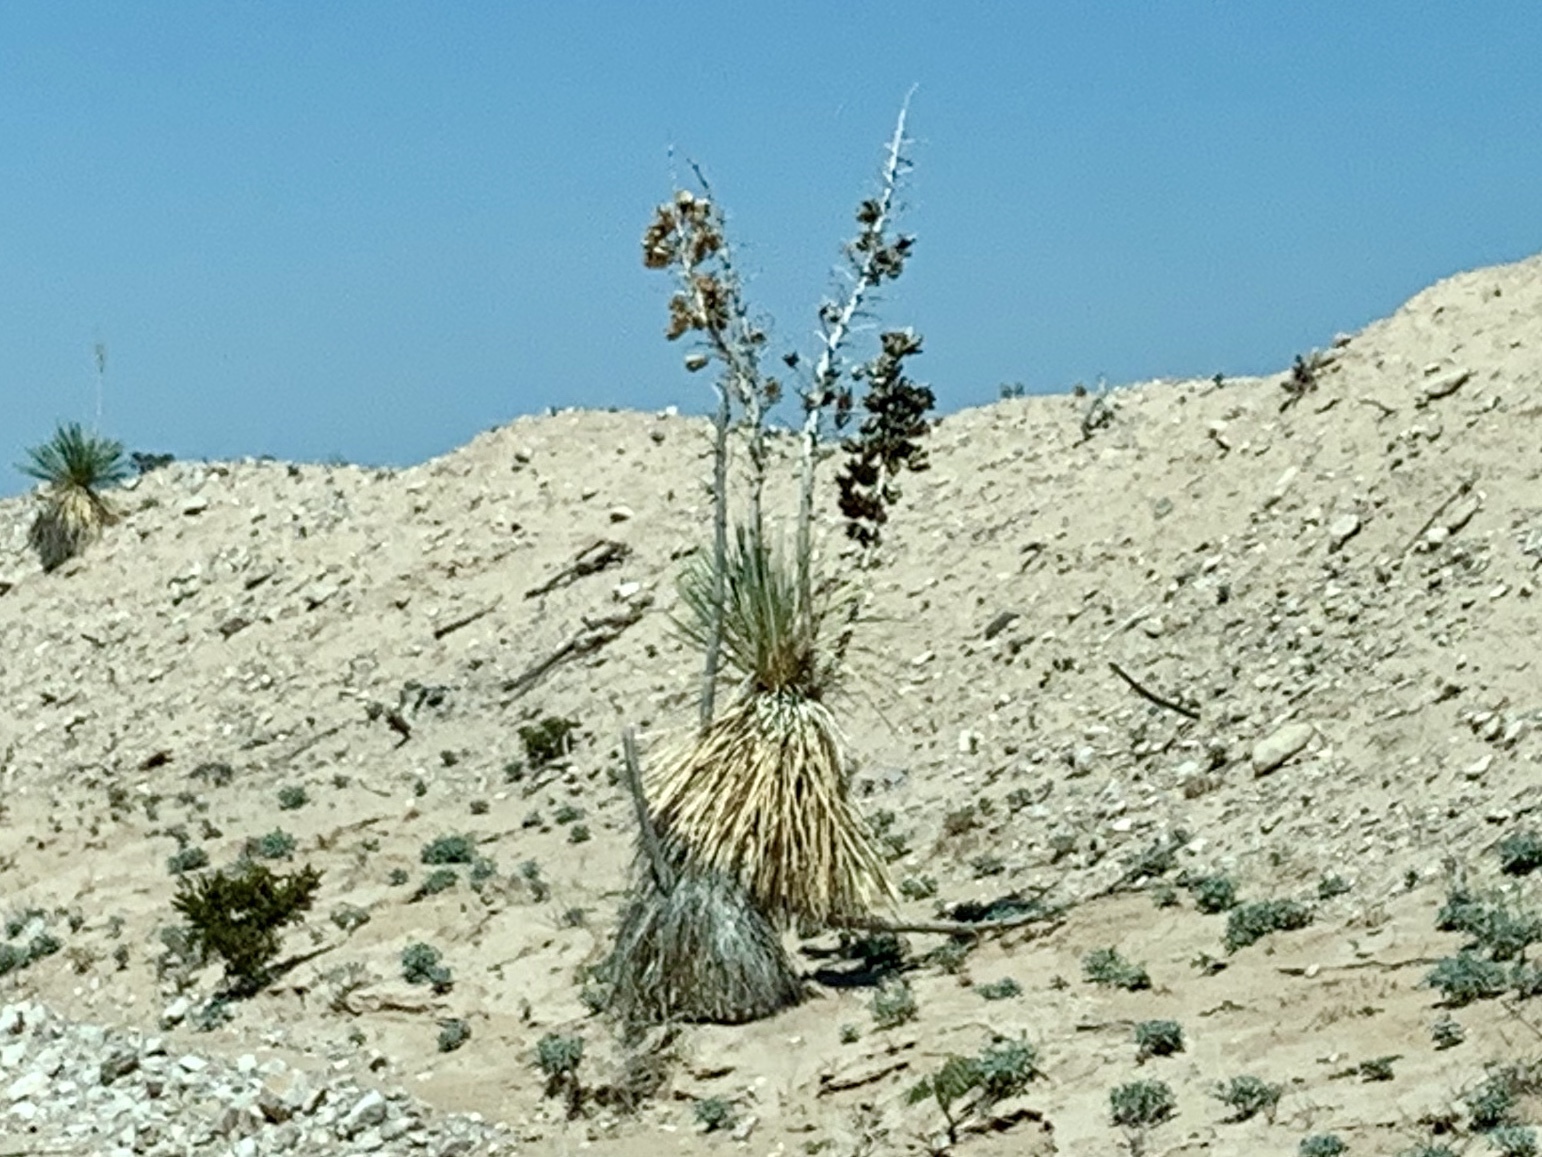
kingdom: Plantae
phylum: Tracheophyta
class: Liliopsida
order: Asparagales
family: Asparagaceae
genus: Yucca
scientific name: Yucca elata
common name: Palmella
